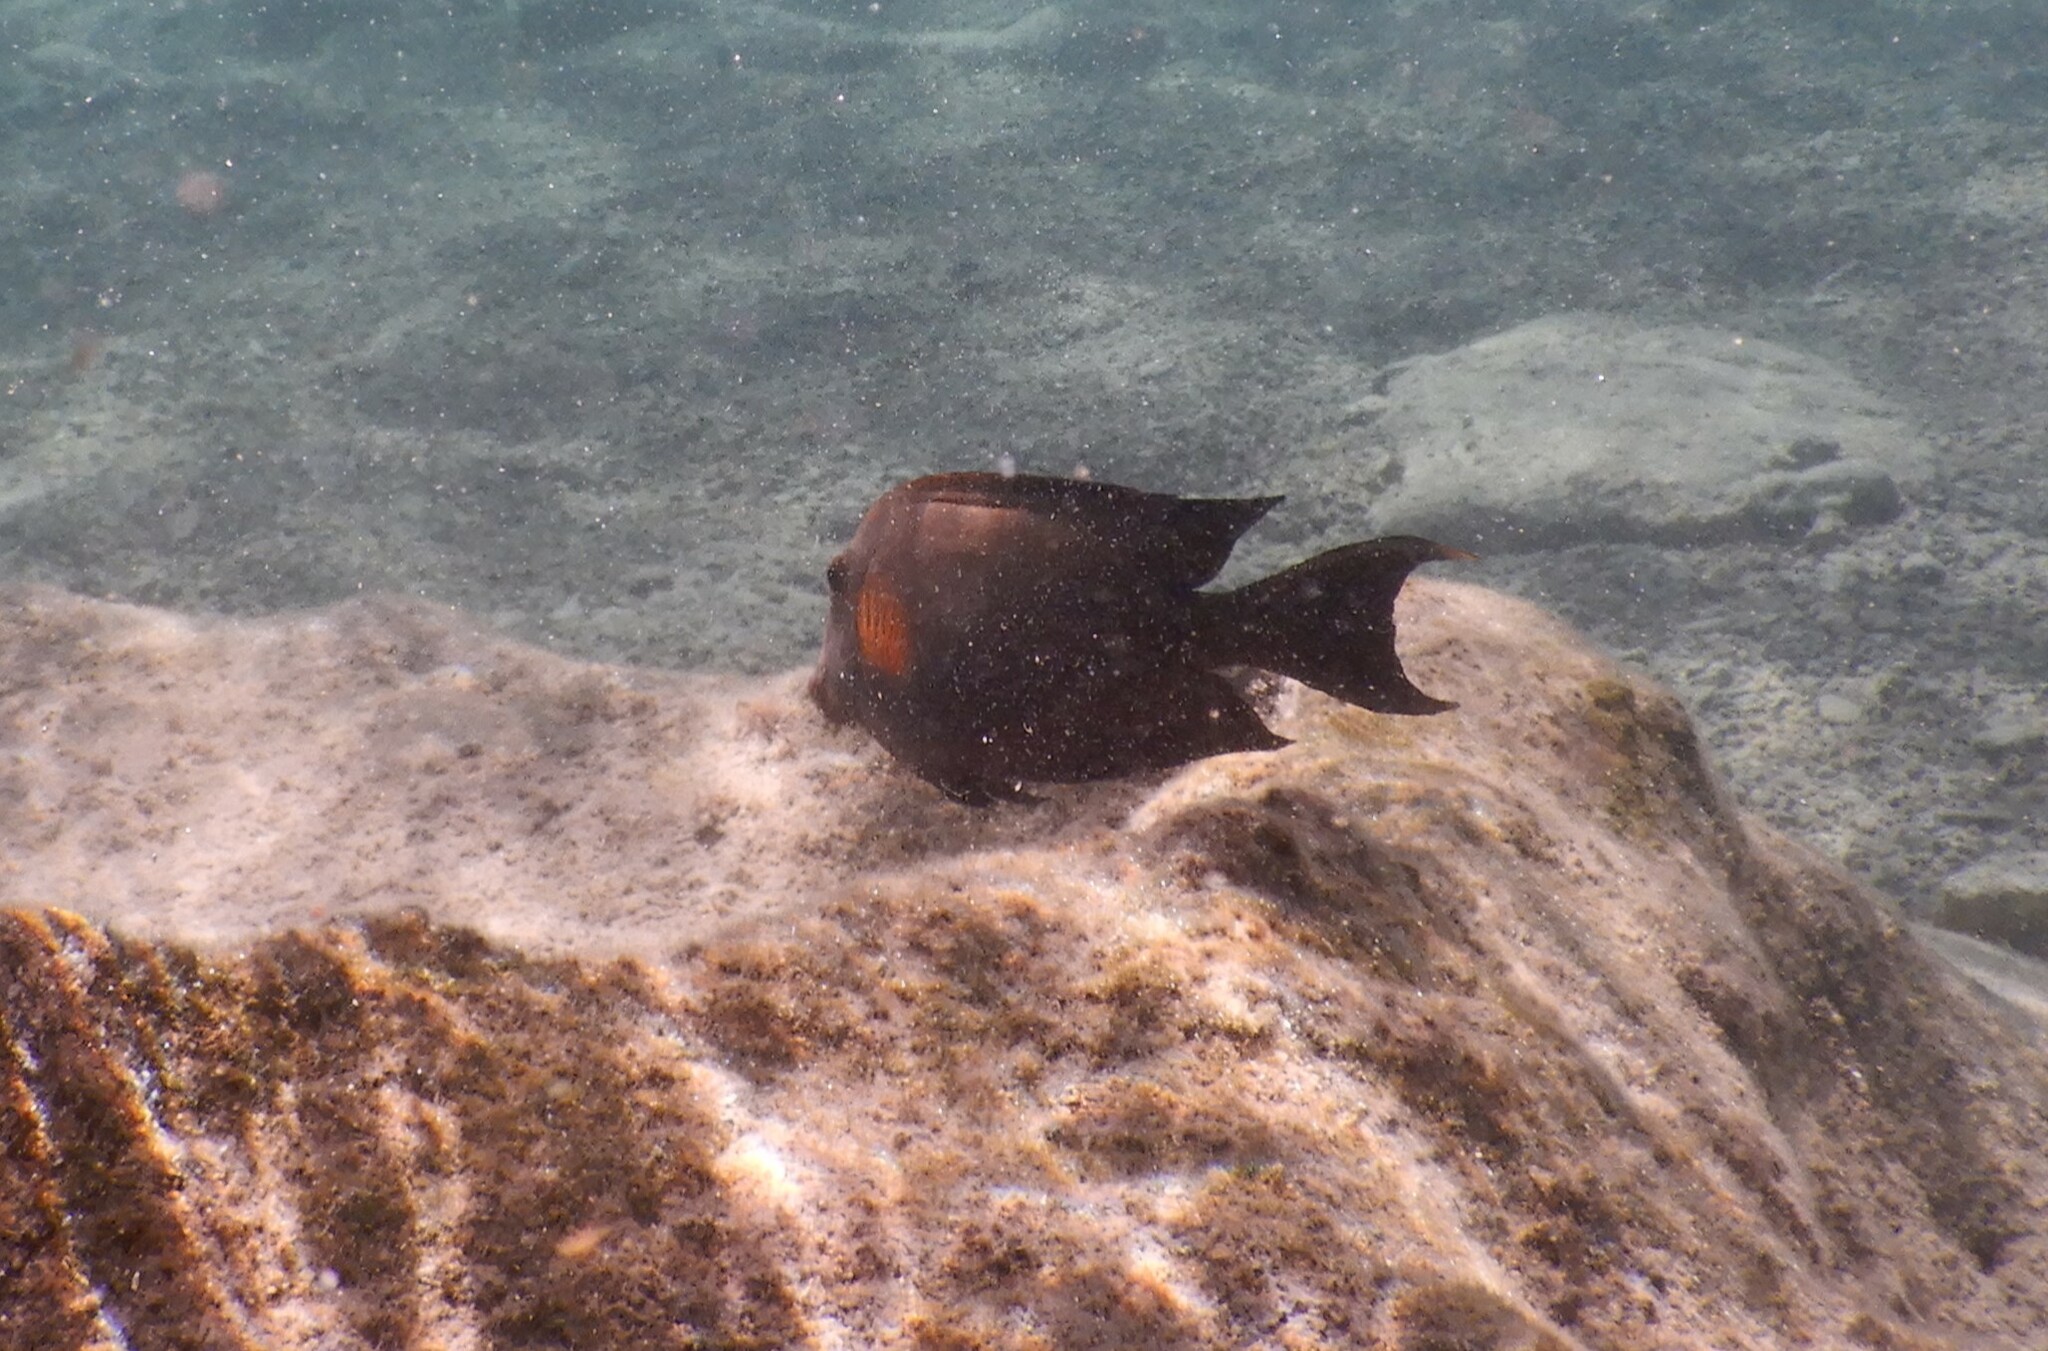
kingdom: Animalia
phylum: Chordata
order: Perciformes
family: Acanthuridae
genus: Ctenochaetus
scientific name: Ctenochaetus striatus
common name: Bristle-toothed surgeonfish
